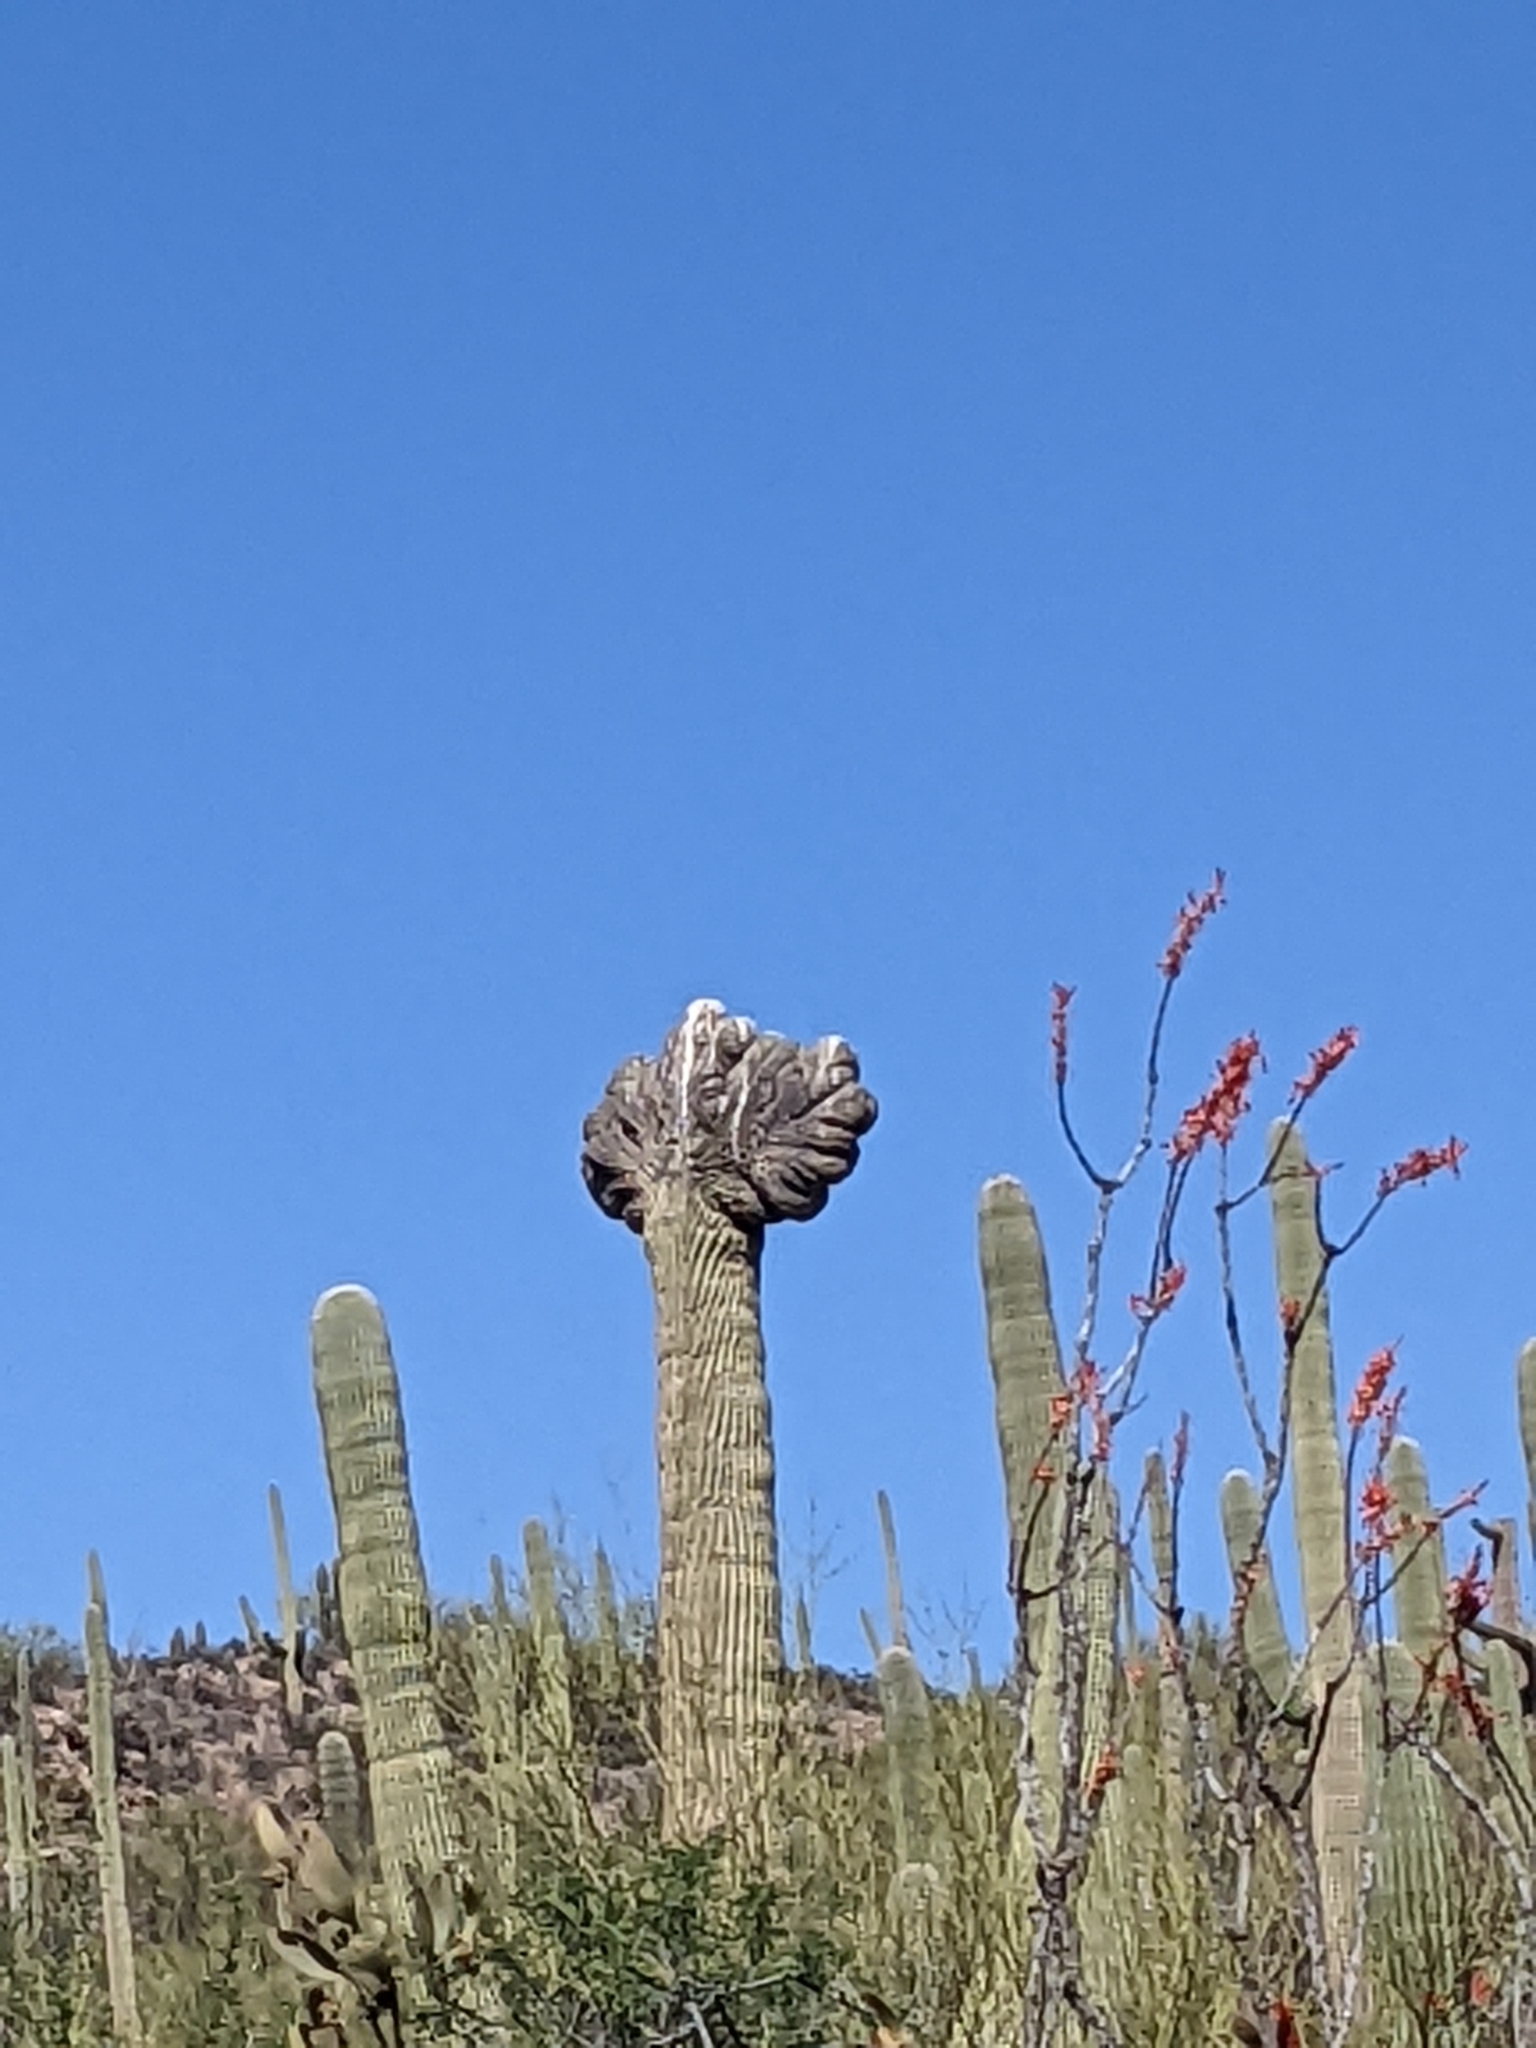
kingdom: Plantae
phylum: Tracheophyta
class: Magnoliopsida
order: Caryophyllales
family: Cactaceae
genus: Carnegiea
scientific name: Carnegiea gigantea
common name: Saguaro
